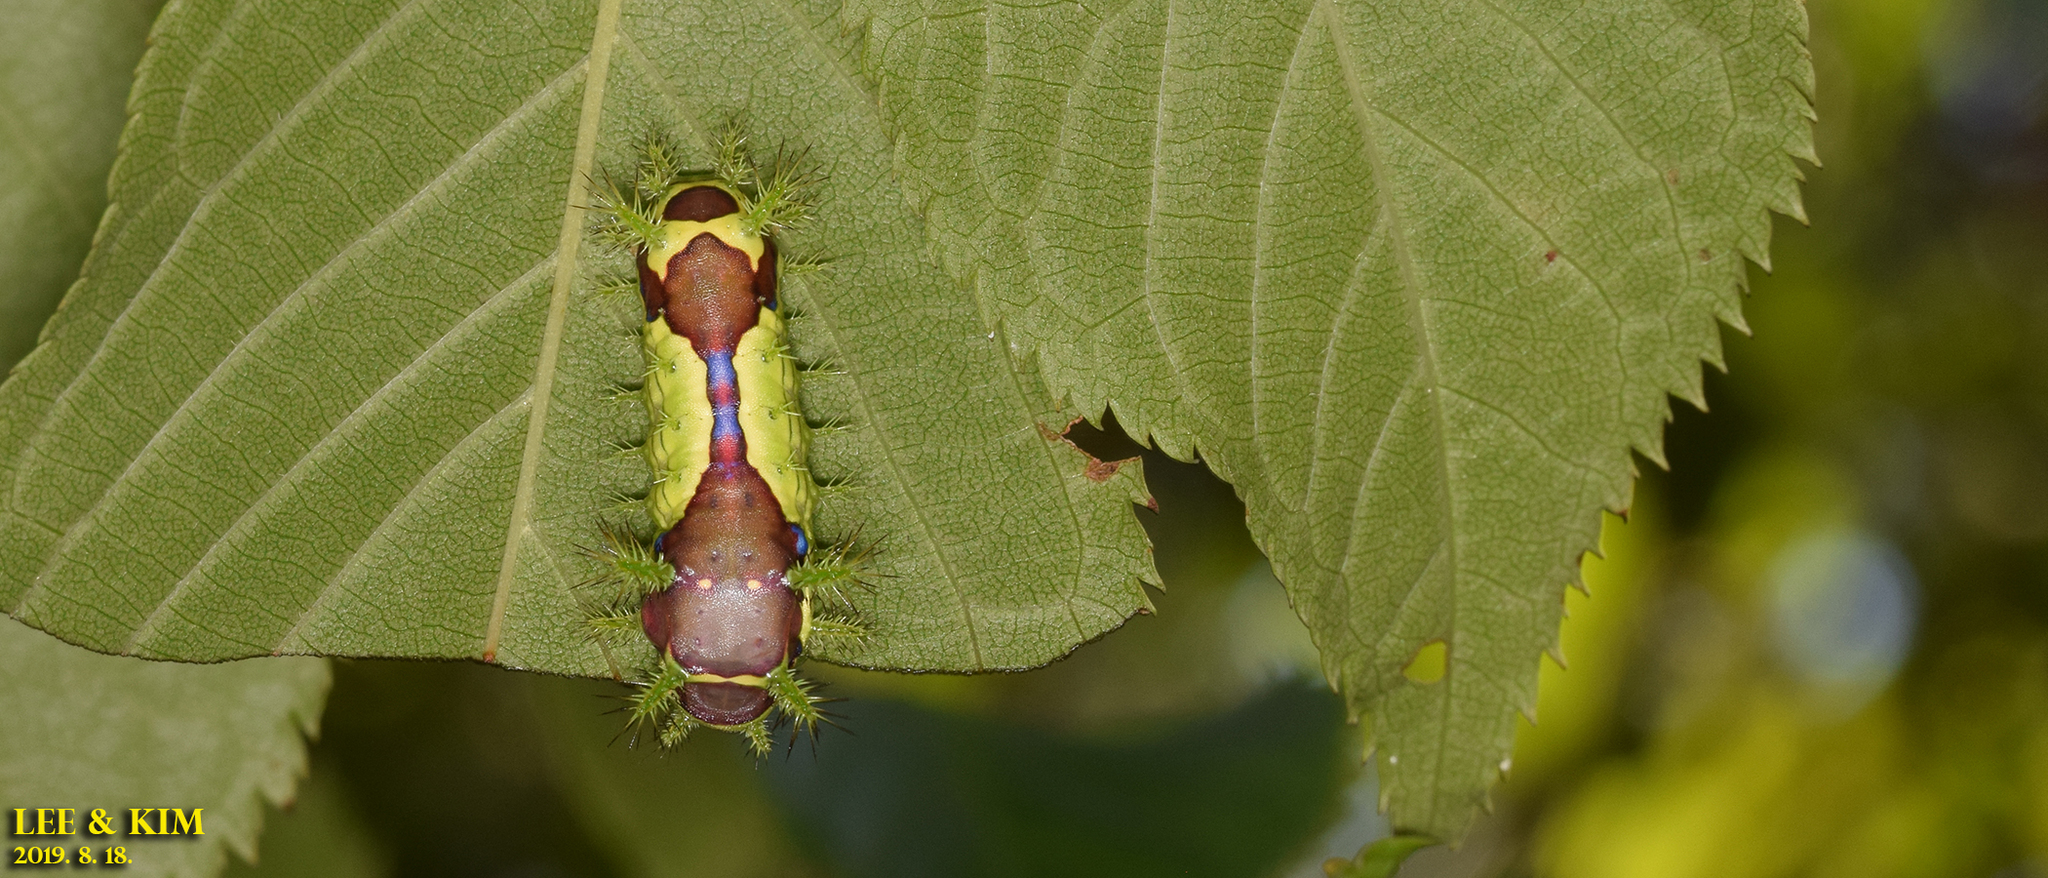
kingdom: Animalia
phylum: Arthropoda
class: Insecta
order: Lepidoptera
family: Limacodidae
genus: Monema
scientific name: Monema flavescens
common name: Oriental moth
